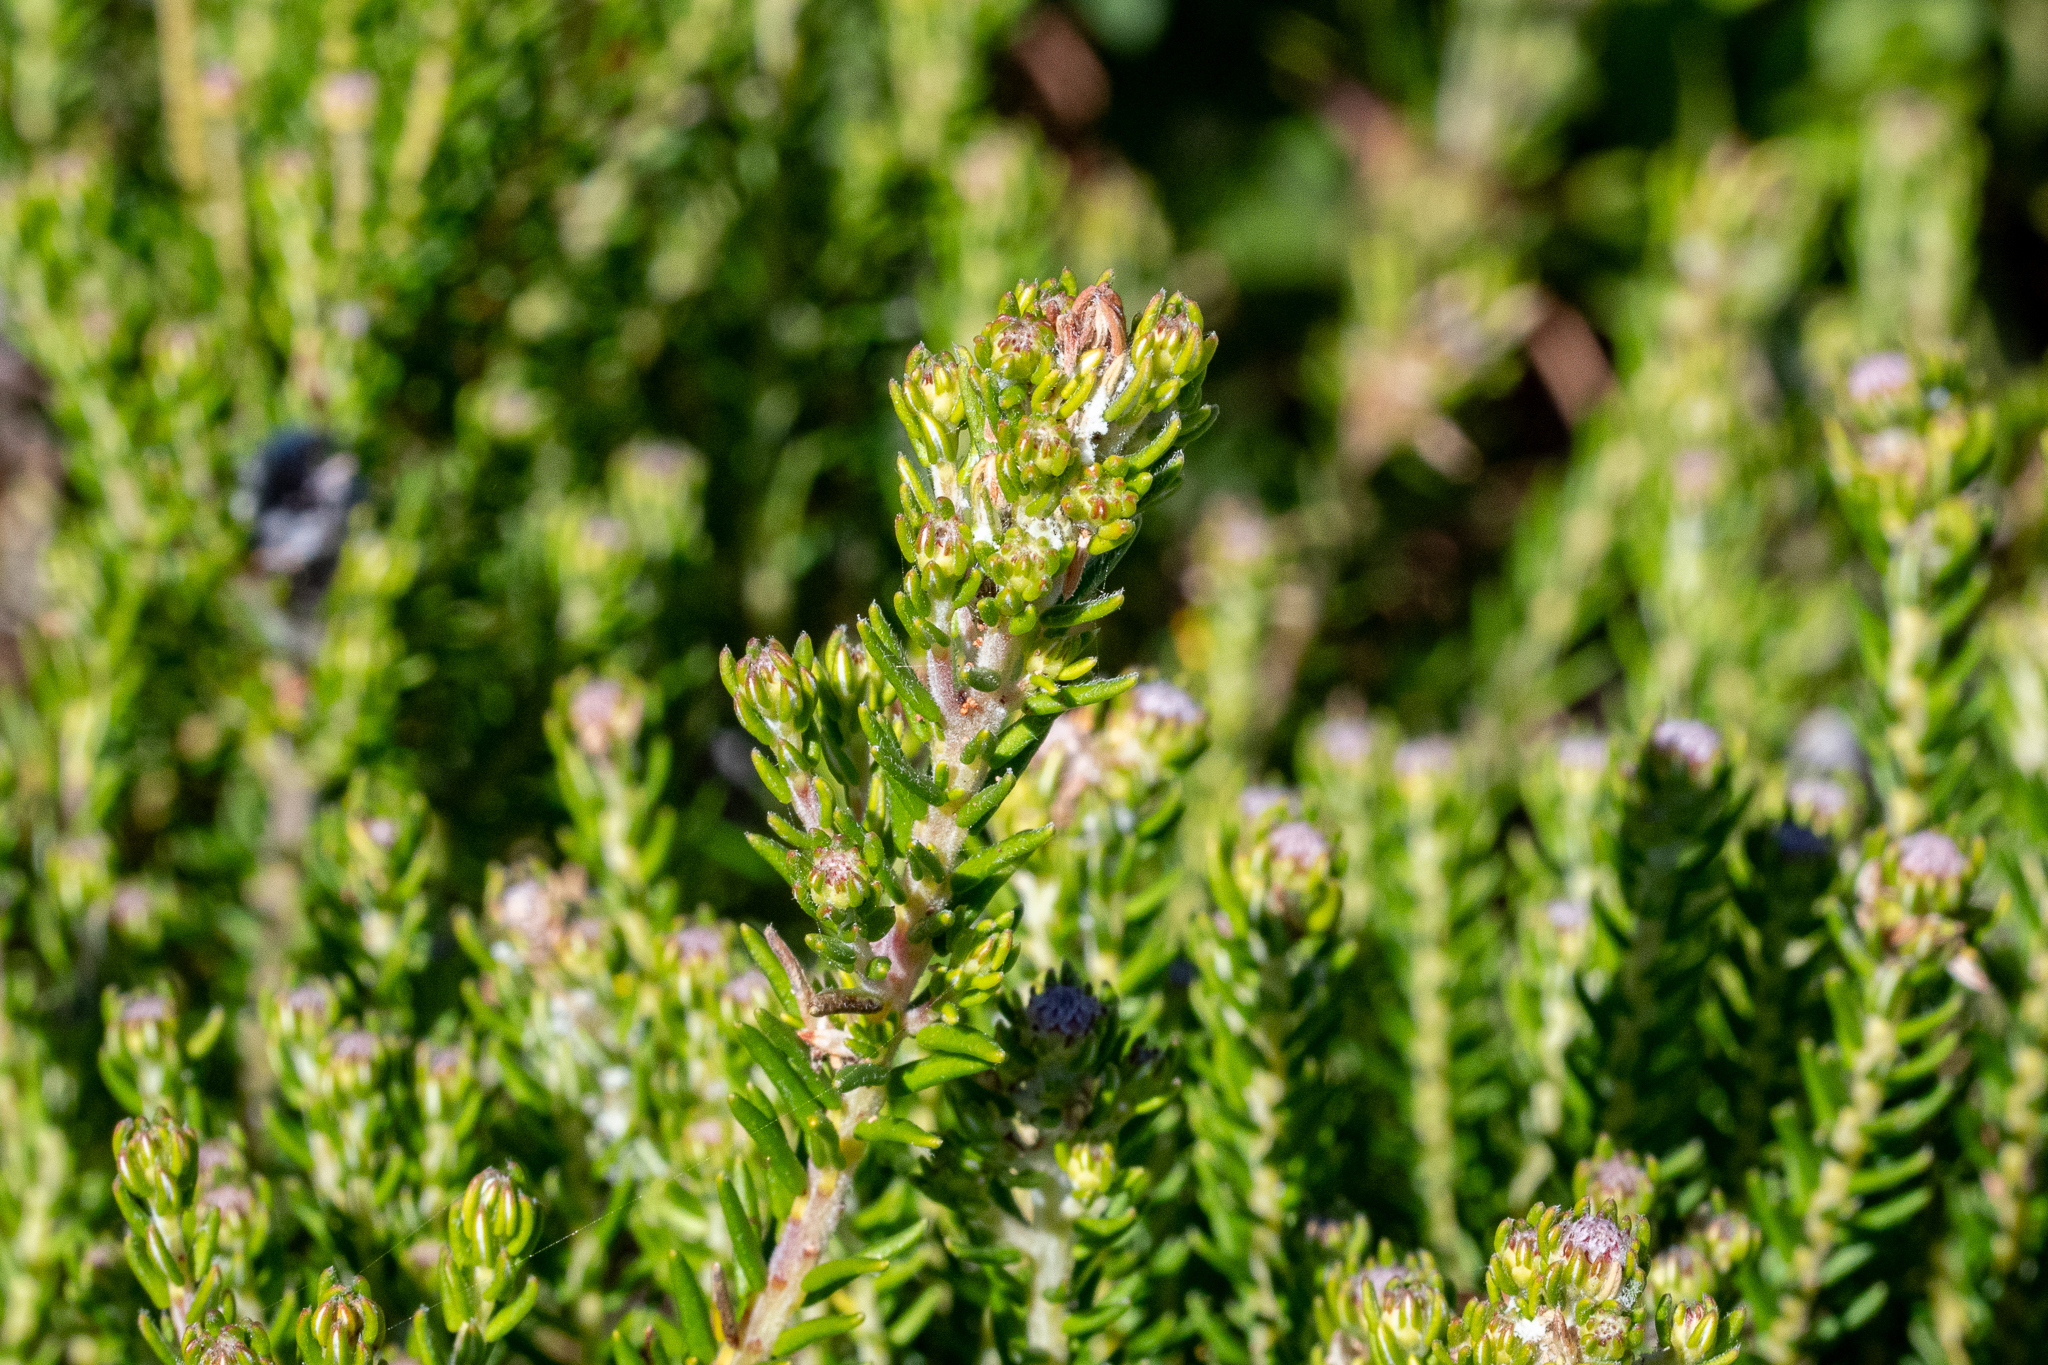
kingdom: Plantae
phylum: Tracheophyta
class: Magnoliopsida
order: Rosales
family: Rhamnaceae
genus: Phylica
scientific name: Phylica ericoides
